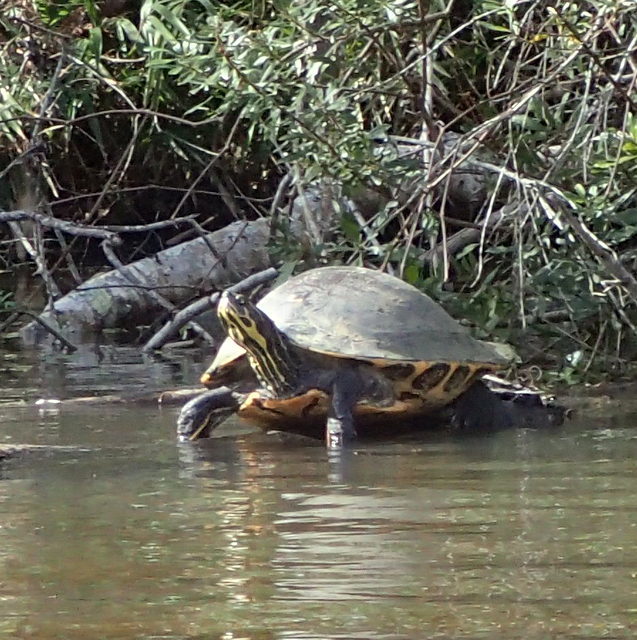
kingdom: Animalia
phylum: Chordata
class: Testudines
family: Emydidae
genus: Pseudemys
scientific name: Pseudemys concinna
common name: Eastern river cooter
